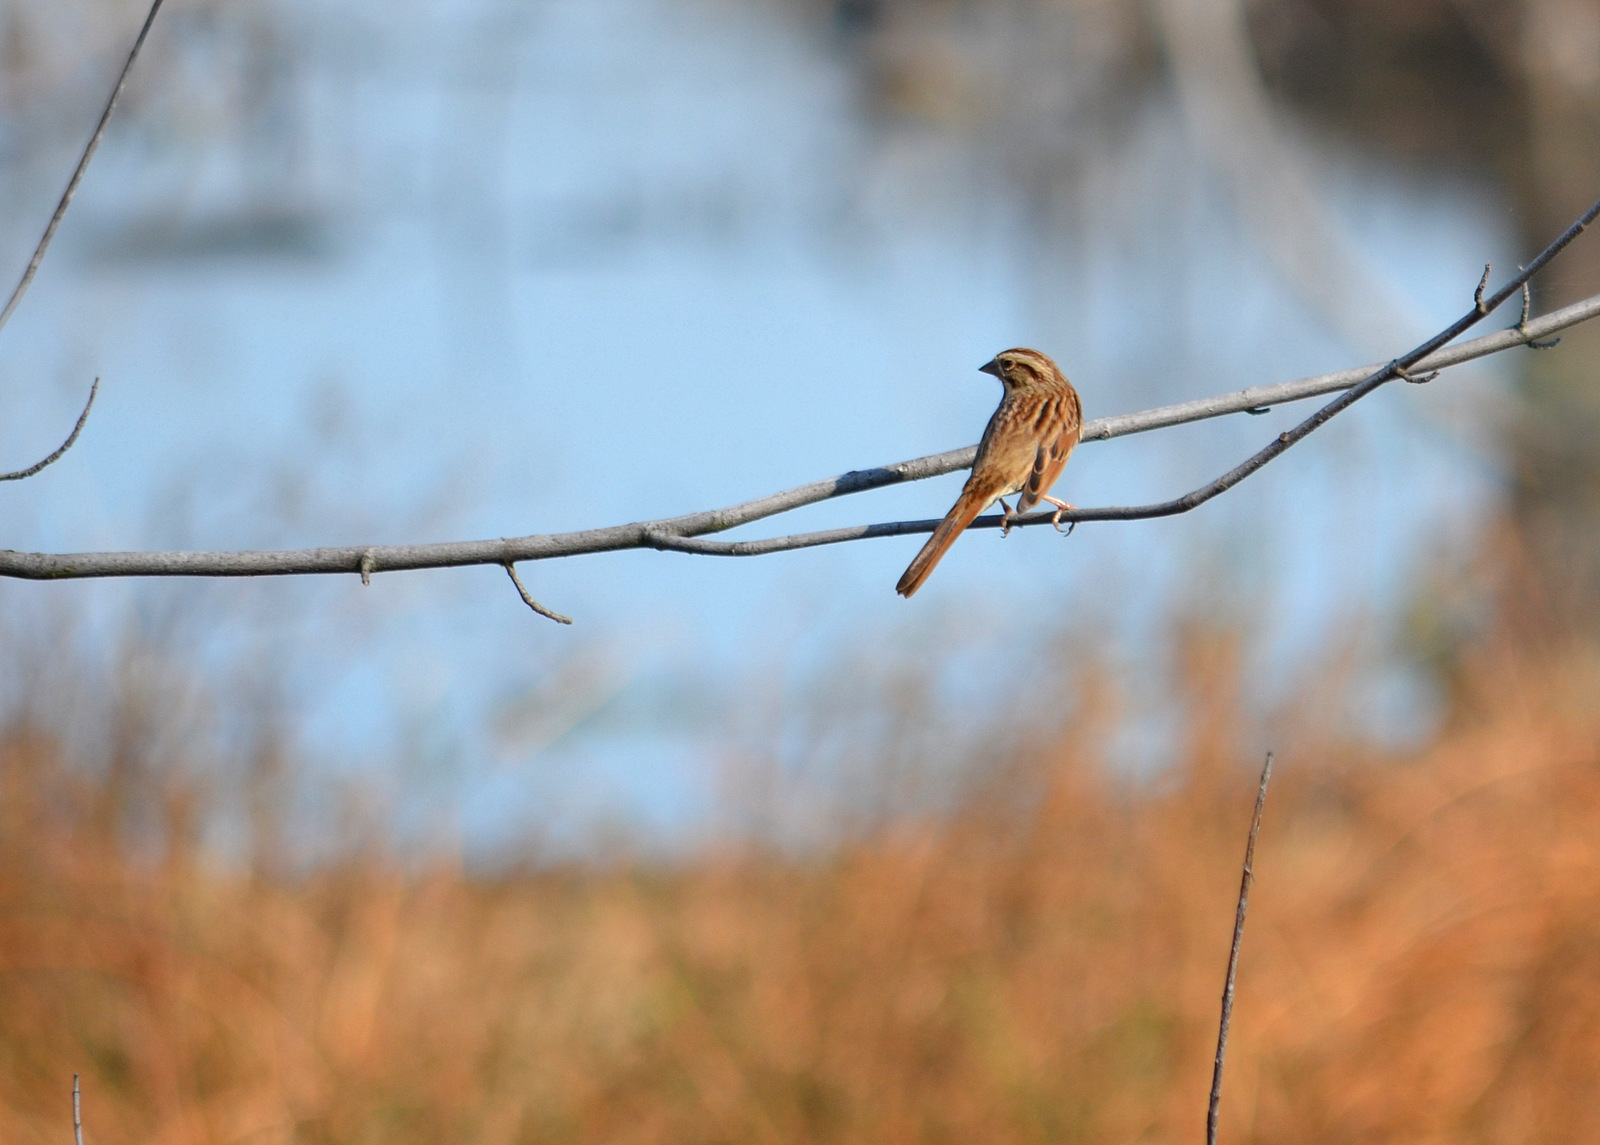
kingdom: Animalia
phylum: Chordata
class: Aves
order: Passeriformes
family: Passerellidae
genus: Melospiza
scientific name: Melospiza melodia
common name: Song sparrow
